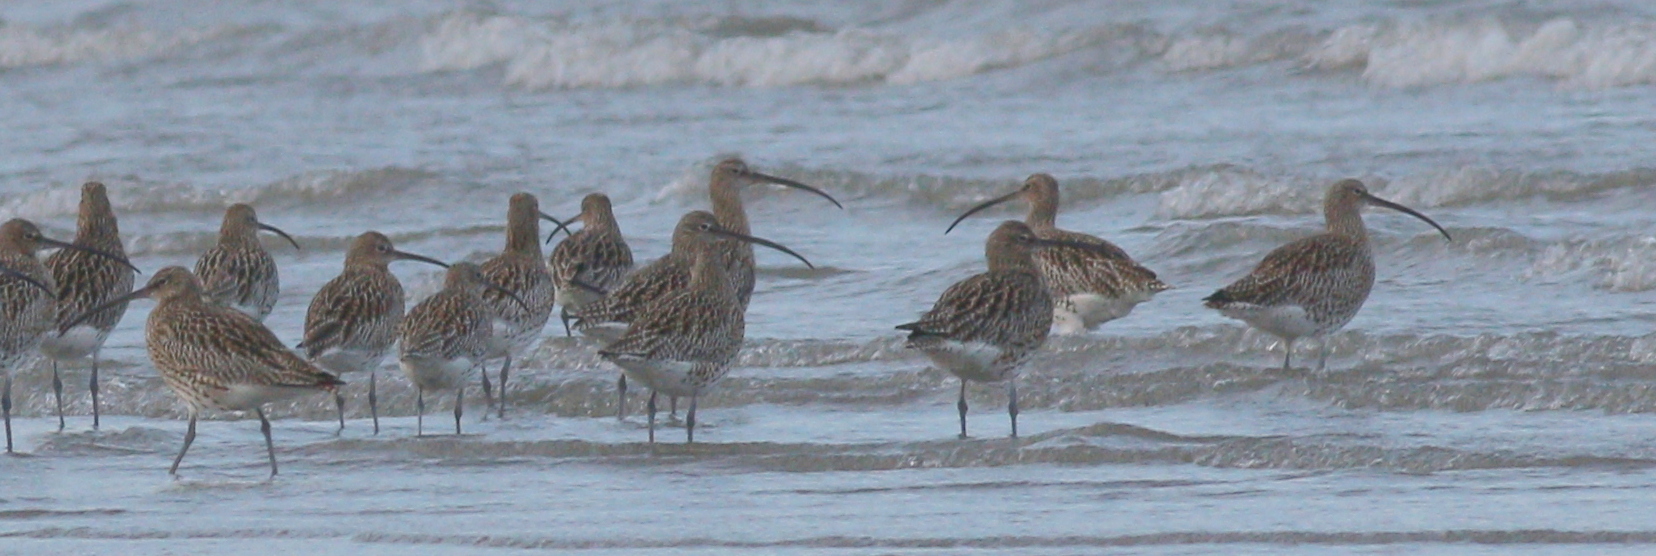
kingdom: Animalia
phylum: Chordata
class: Aves
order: Charadriiformes
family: Scolopacidae
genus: Numenius
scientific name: Numenius arquata
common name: Eurasian curlew
